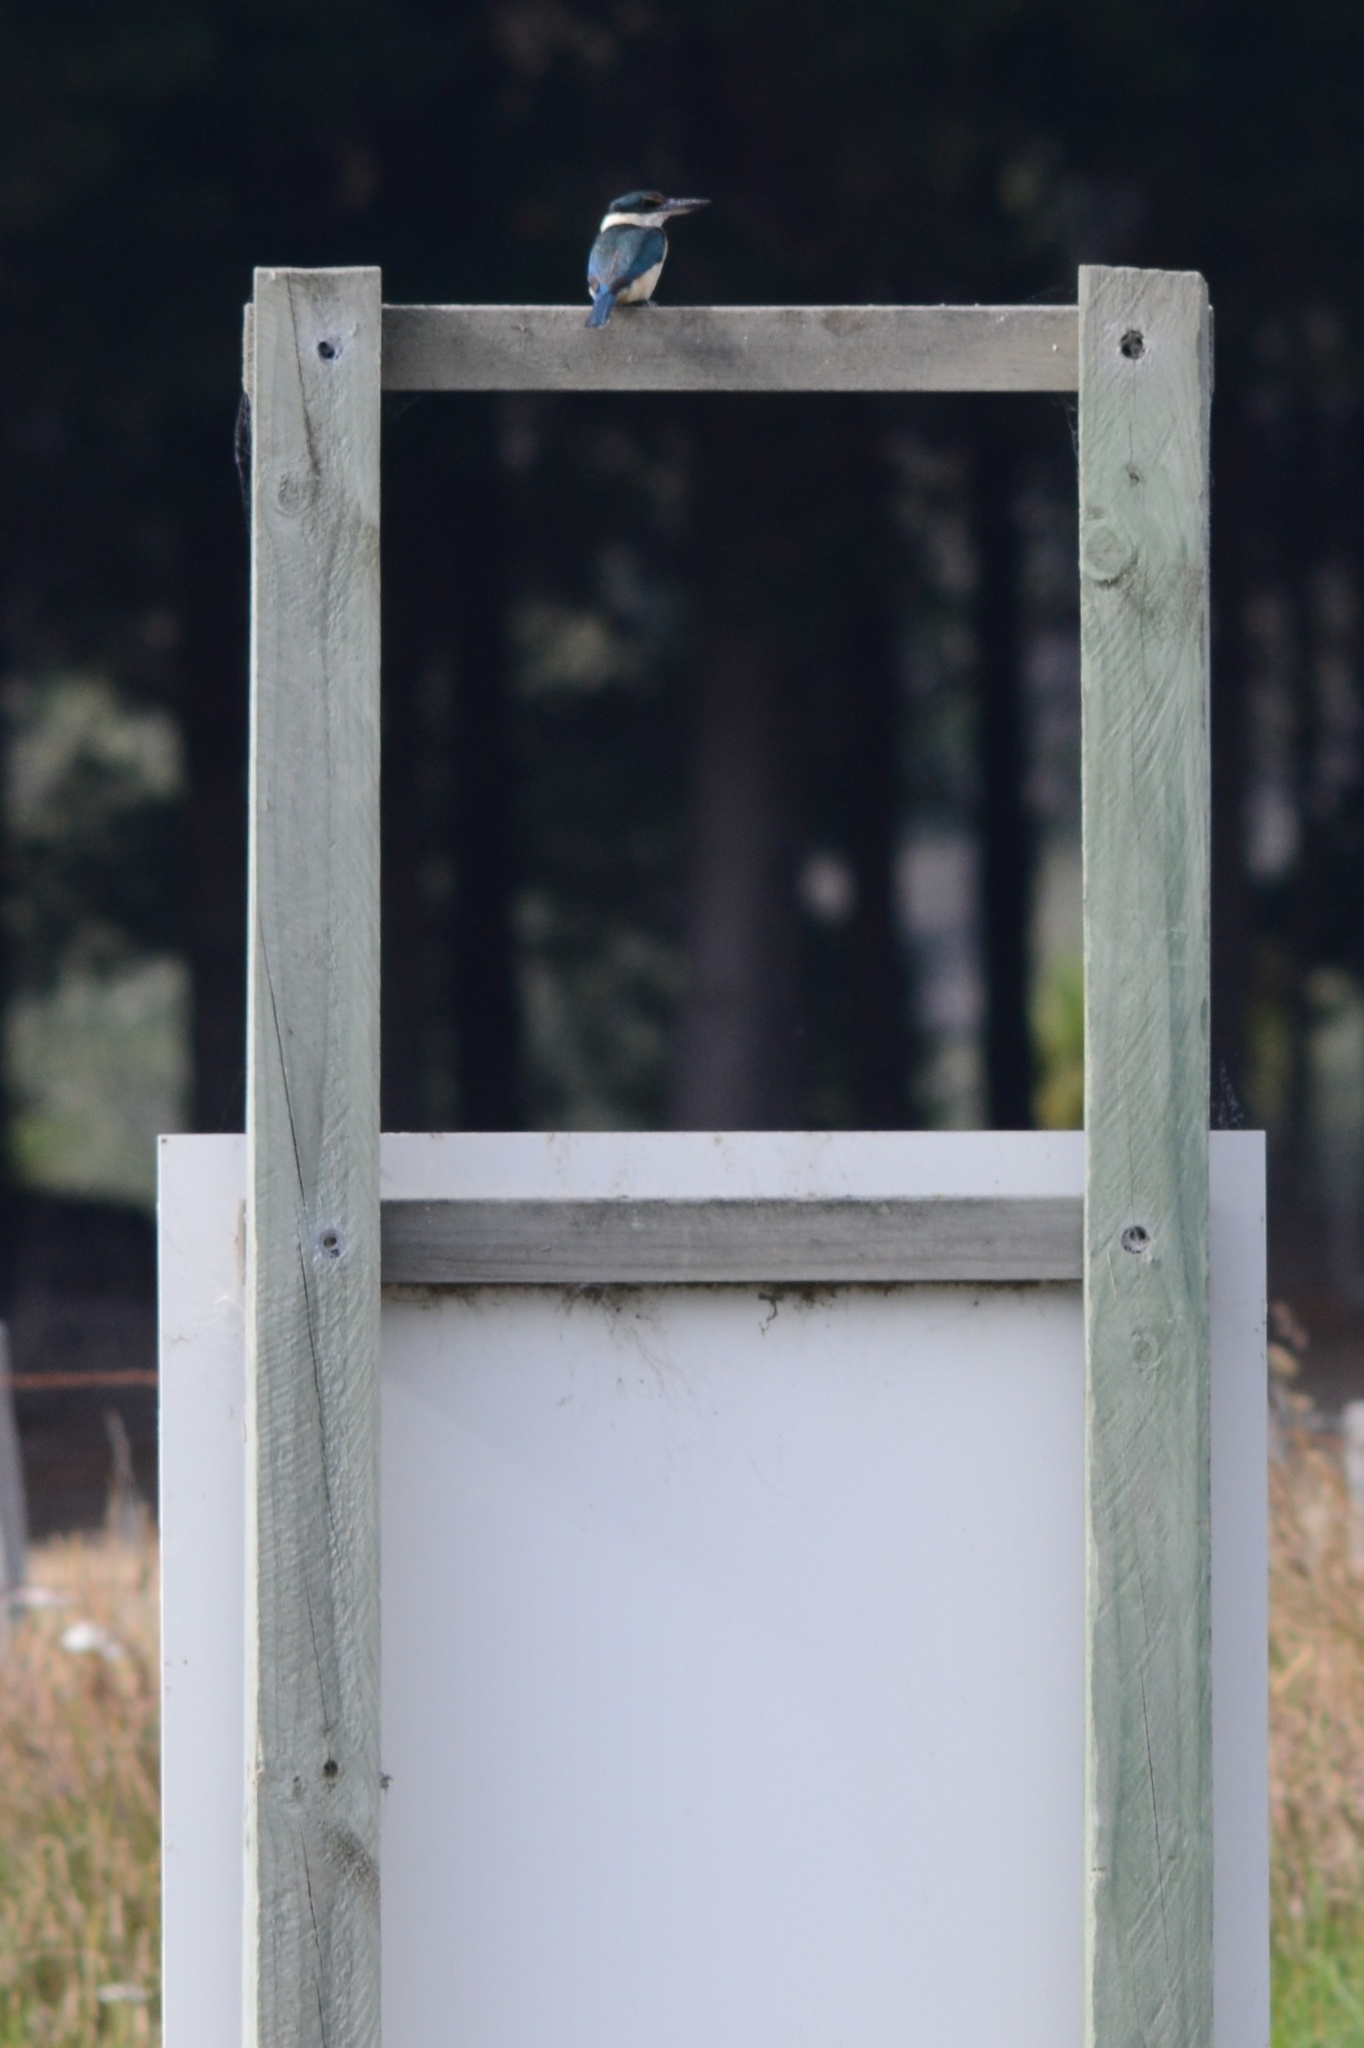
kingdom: Animalia
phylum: Chordata
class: Aves
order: Coraciiformes
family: Alcedinidae
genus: Todiramphus
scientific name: Todiramphus sanctus
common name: Sacred kingfisher
